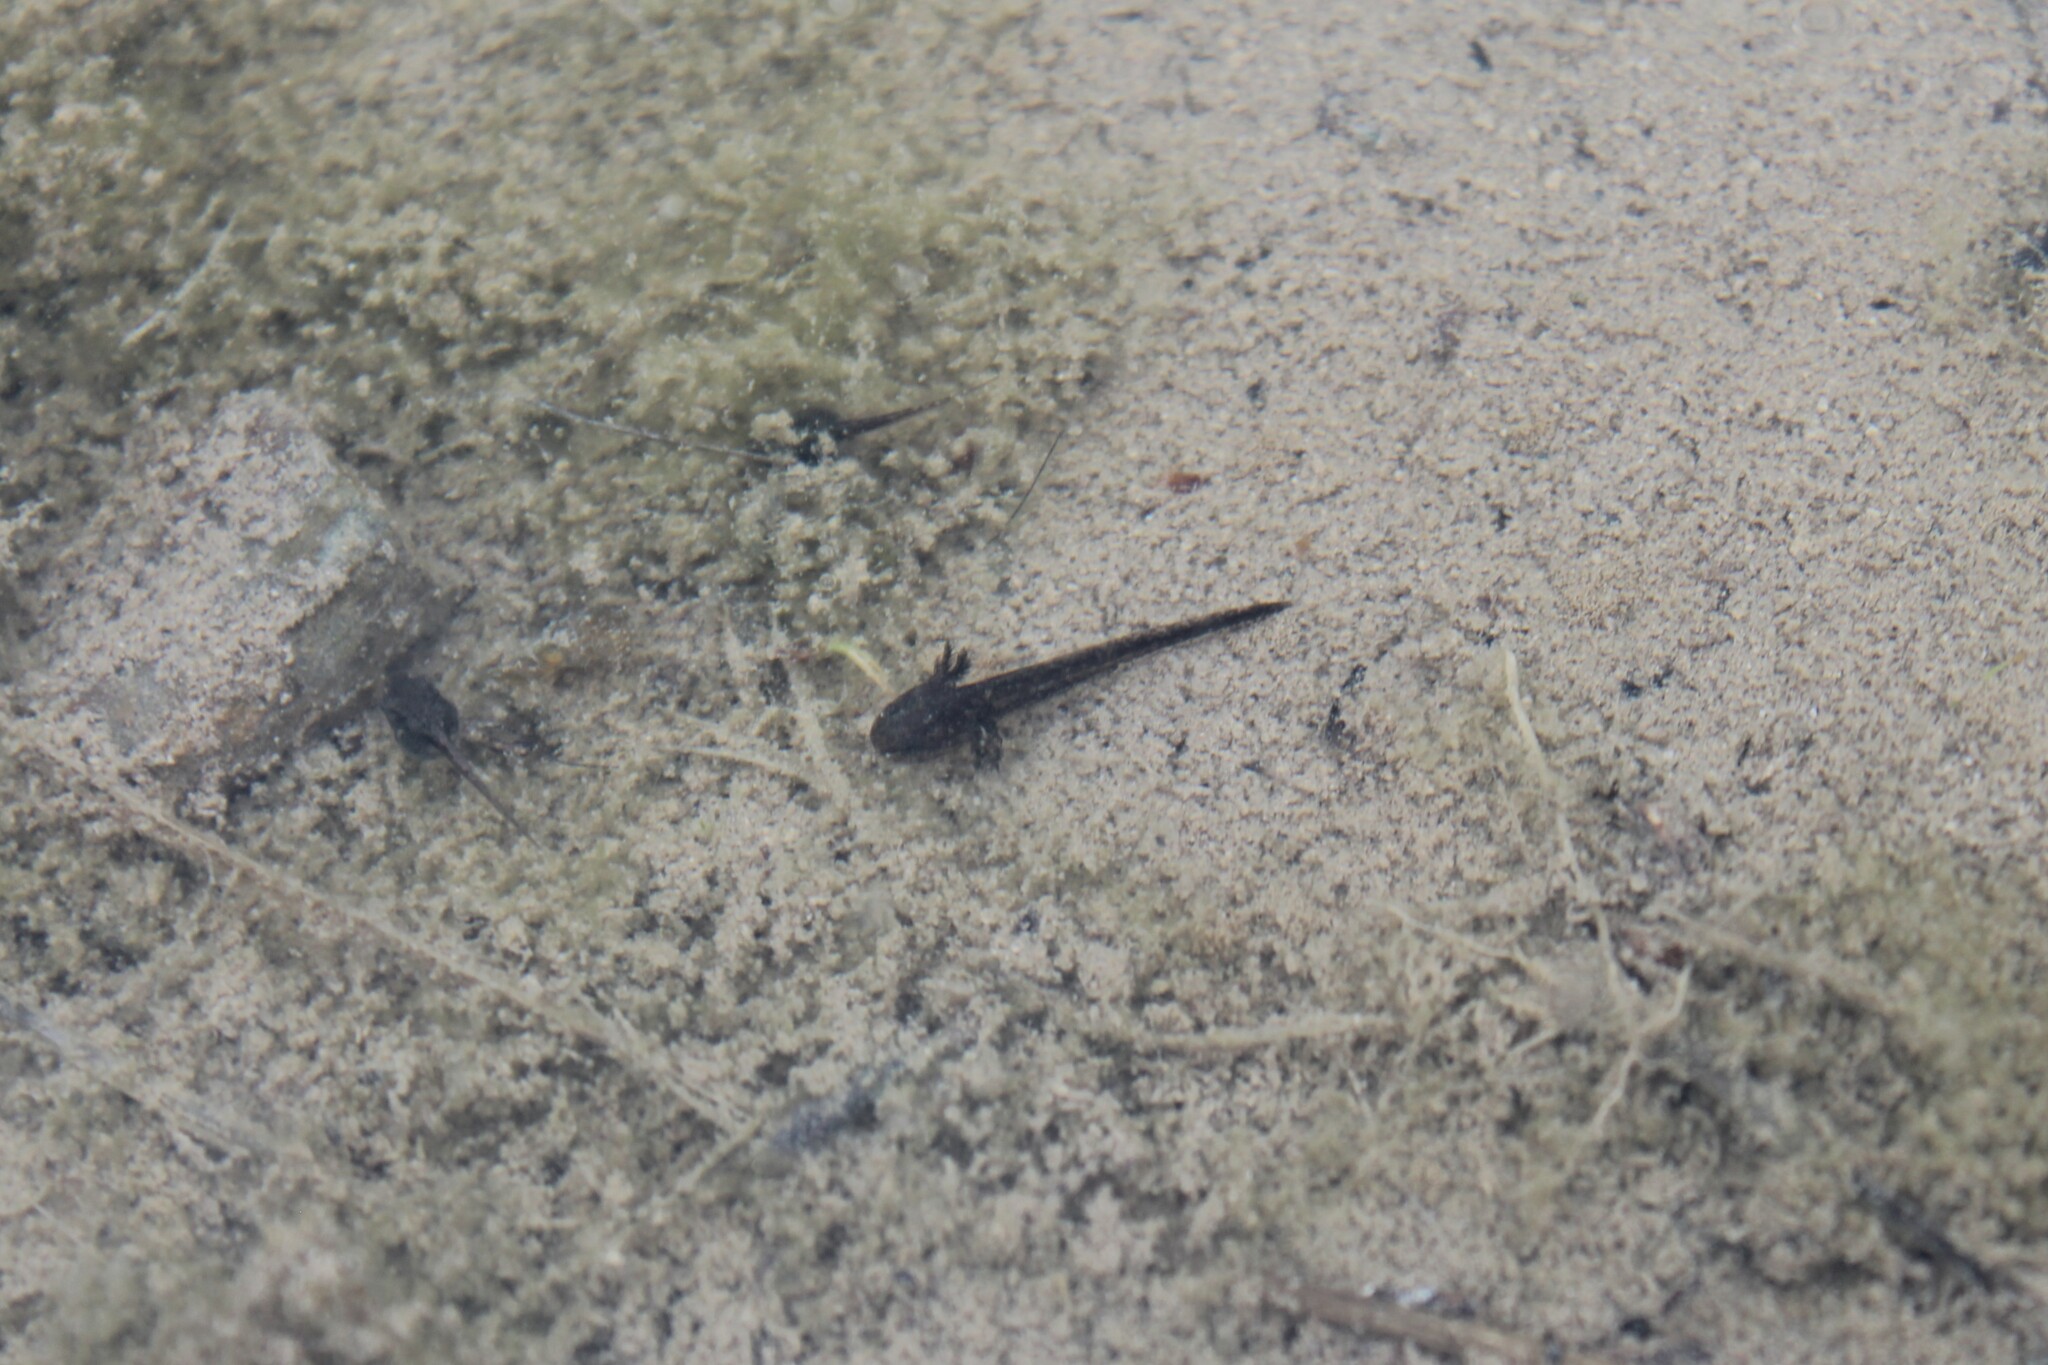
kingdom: Animalia
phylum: Chordata
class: Amphibia
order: Caudata
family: Ambystomatidae
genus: Ambystoma
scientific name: Ambystoma barbouri
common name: Streamside salamander
